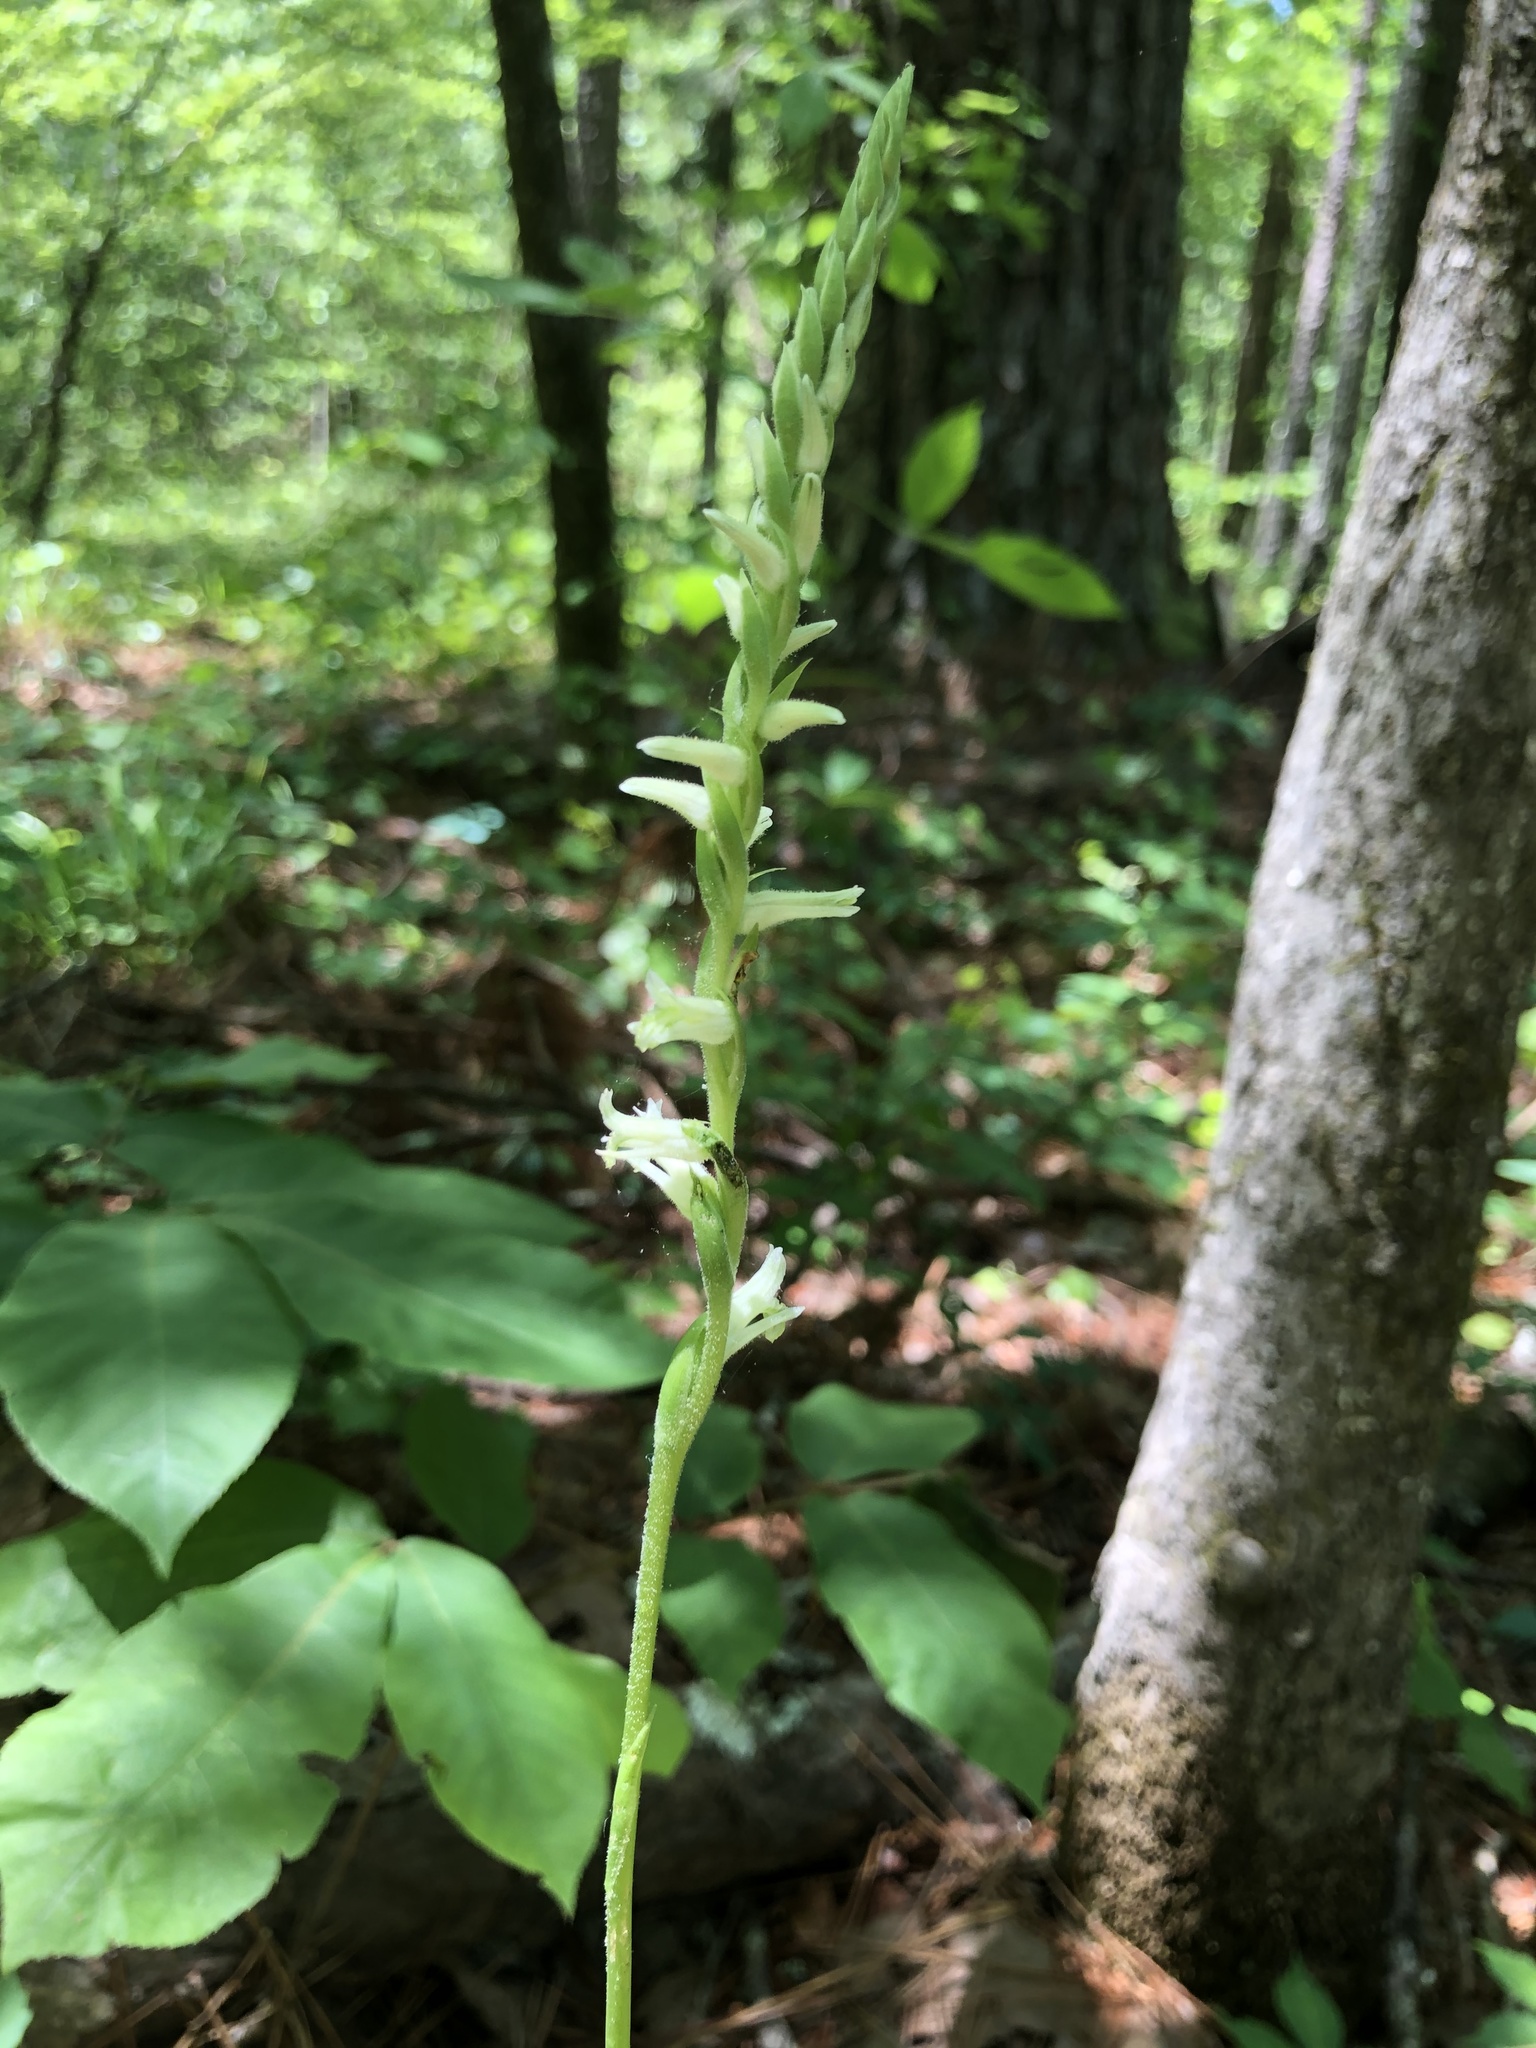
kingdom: Plantae
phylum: Tracheophyta
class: Liliopsida
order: Asparagales
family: Orchidaceae
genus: Spiranthes
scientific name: Spiranthes sylvatica
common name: Woodland lady's tresses
